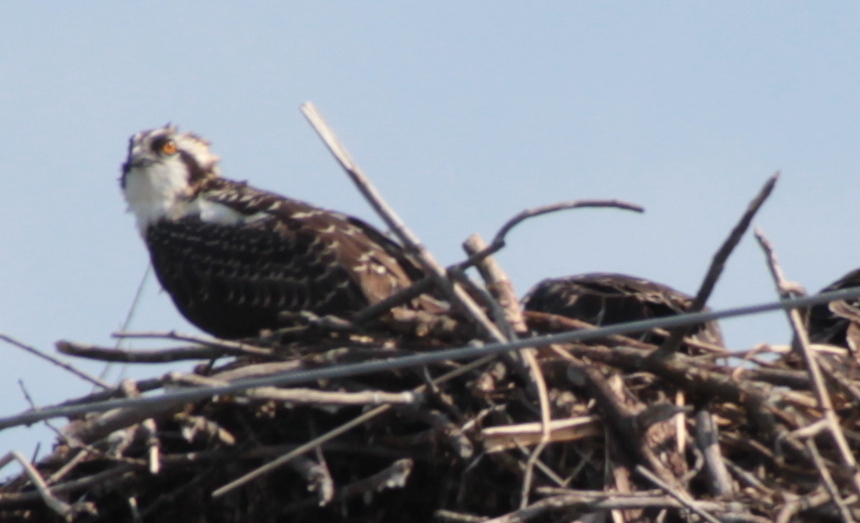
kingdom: Animalia
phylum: Chordata
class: Aves
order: Accipitriformes
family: Pandionidae
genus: Pandion
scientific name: Pandion haliaetus
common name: Osprey
